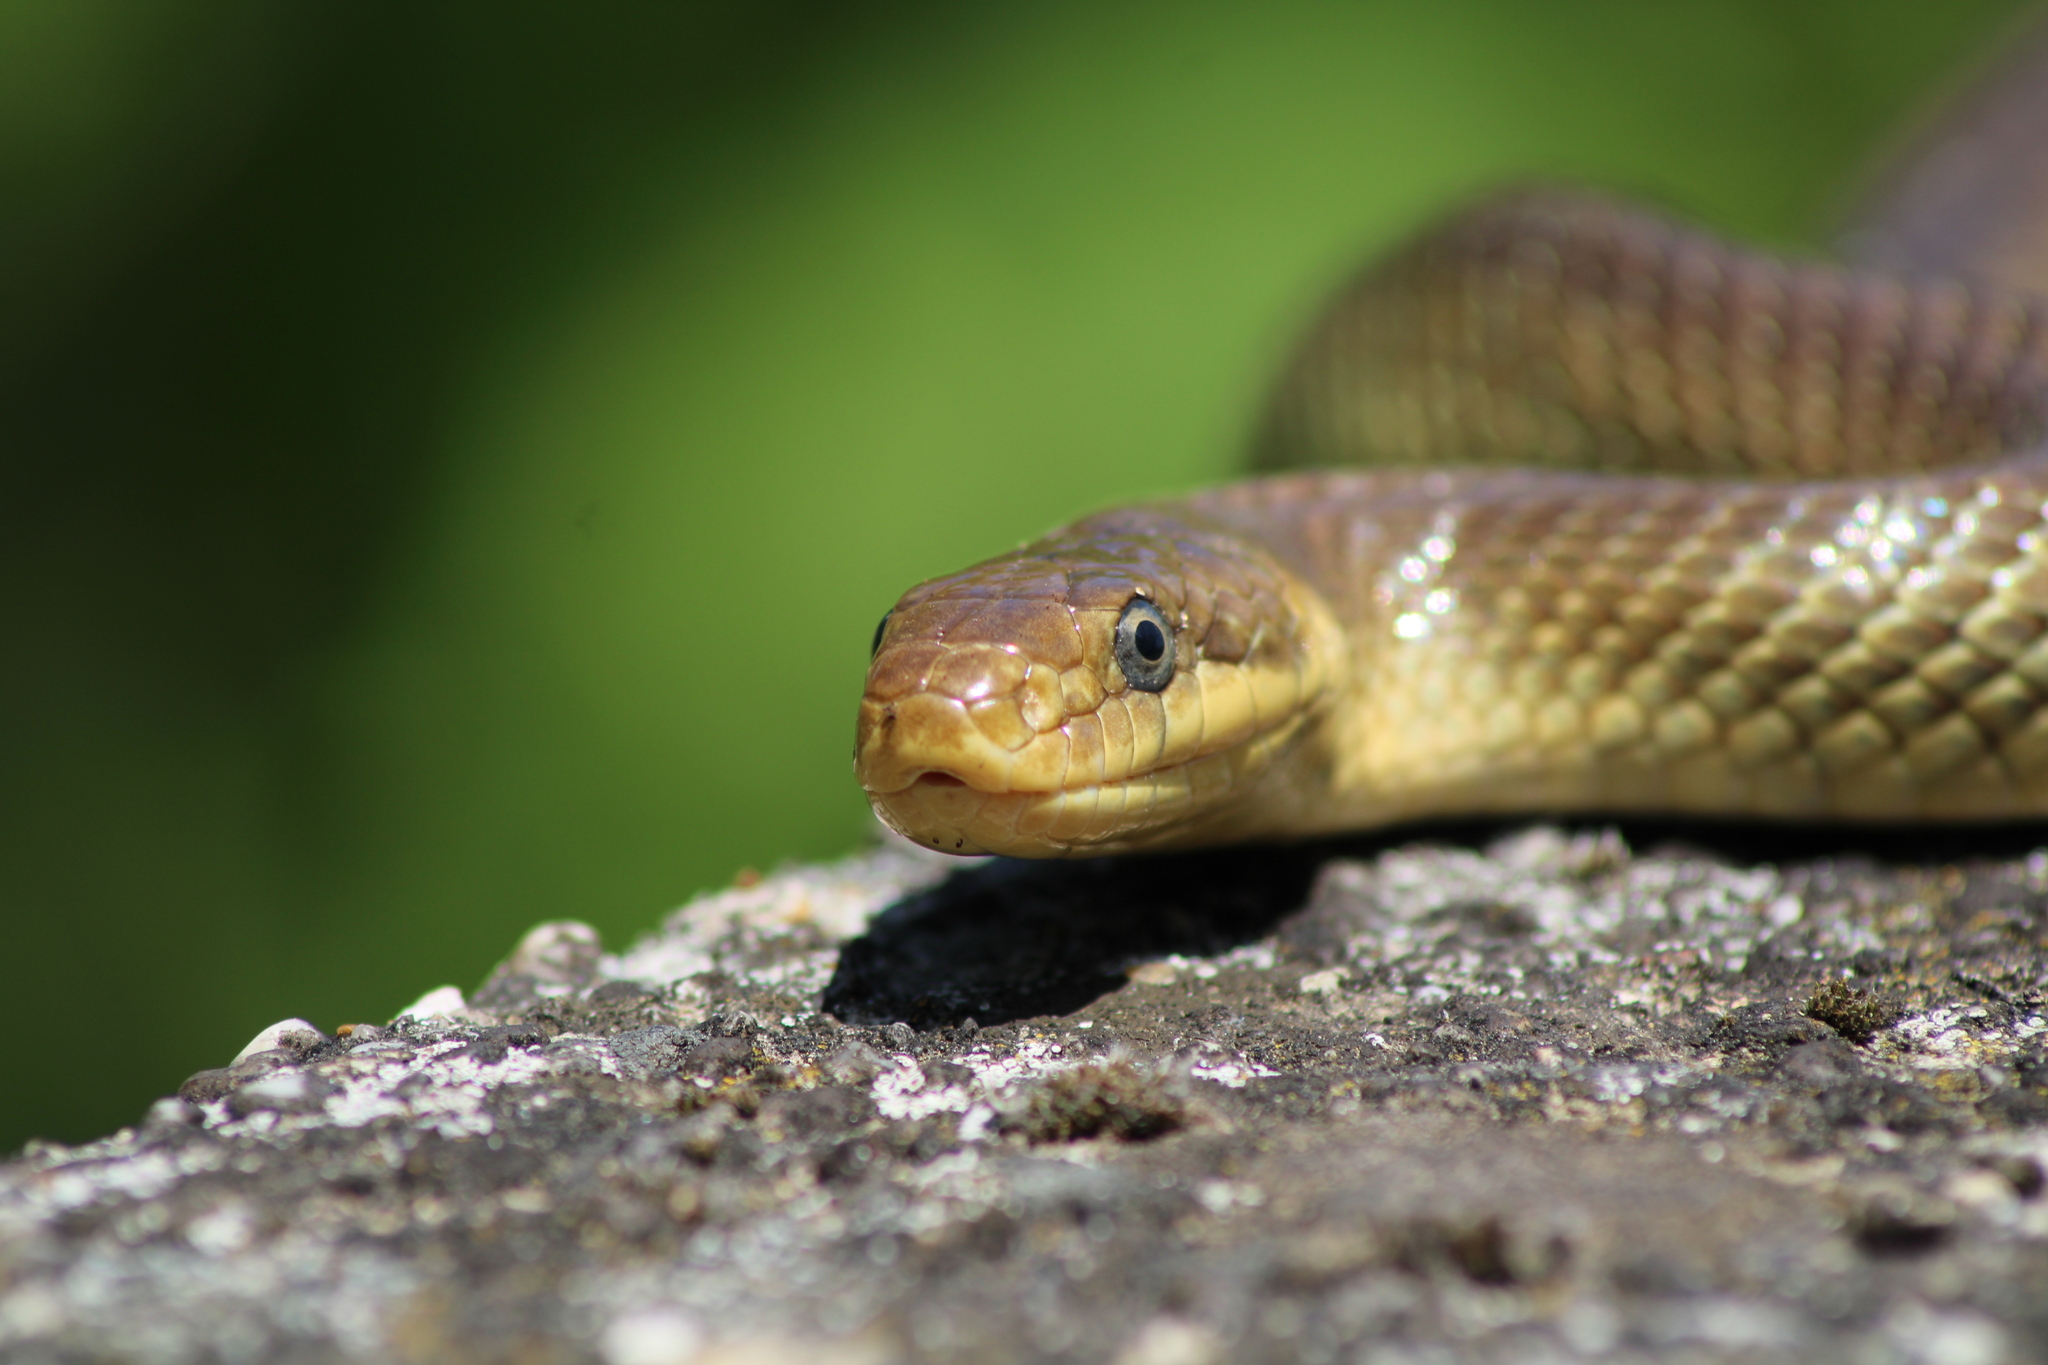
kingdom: Animalia
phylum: Chordata
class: Squamata
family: Colubridae
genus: Zamenis
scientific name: Zamenis longissimus
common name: Aesculapean snake
